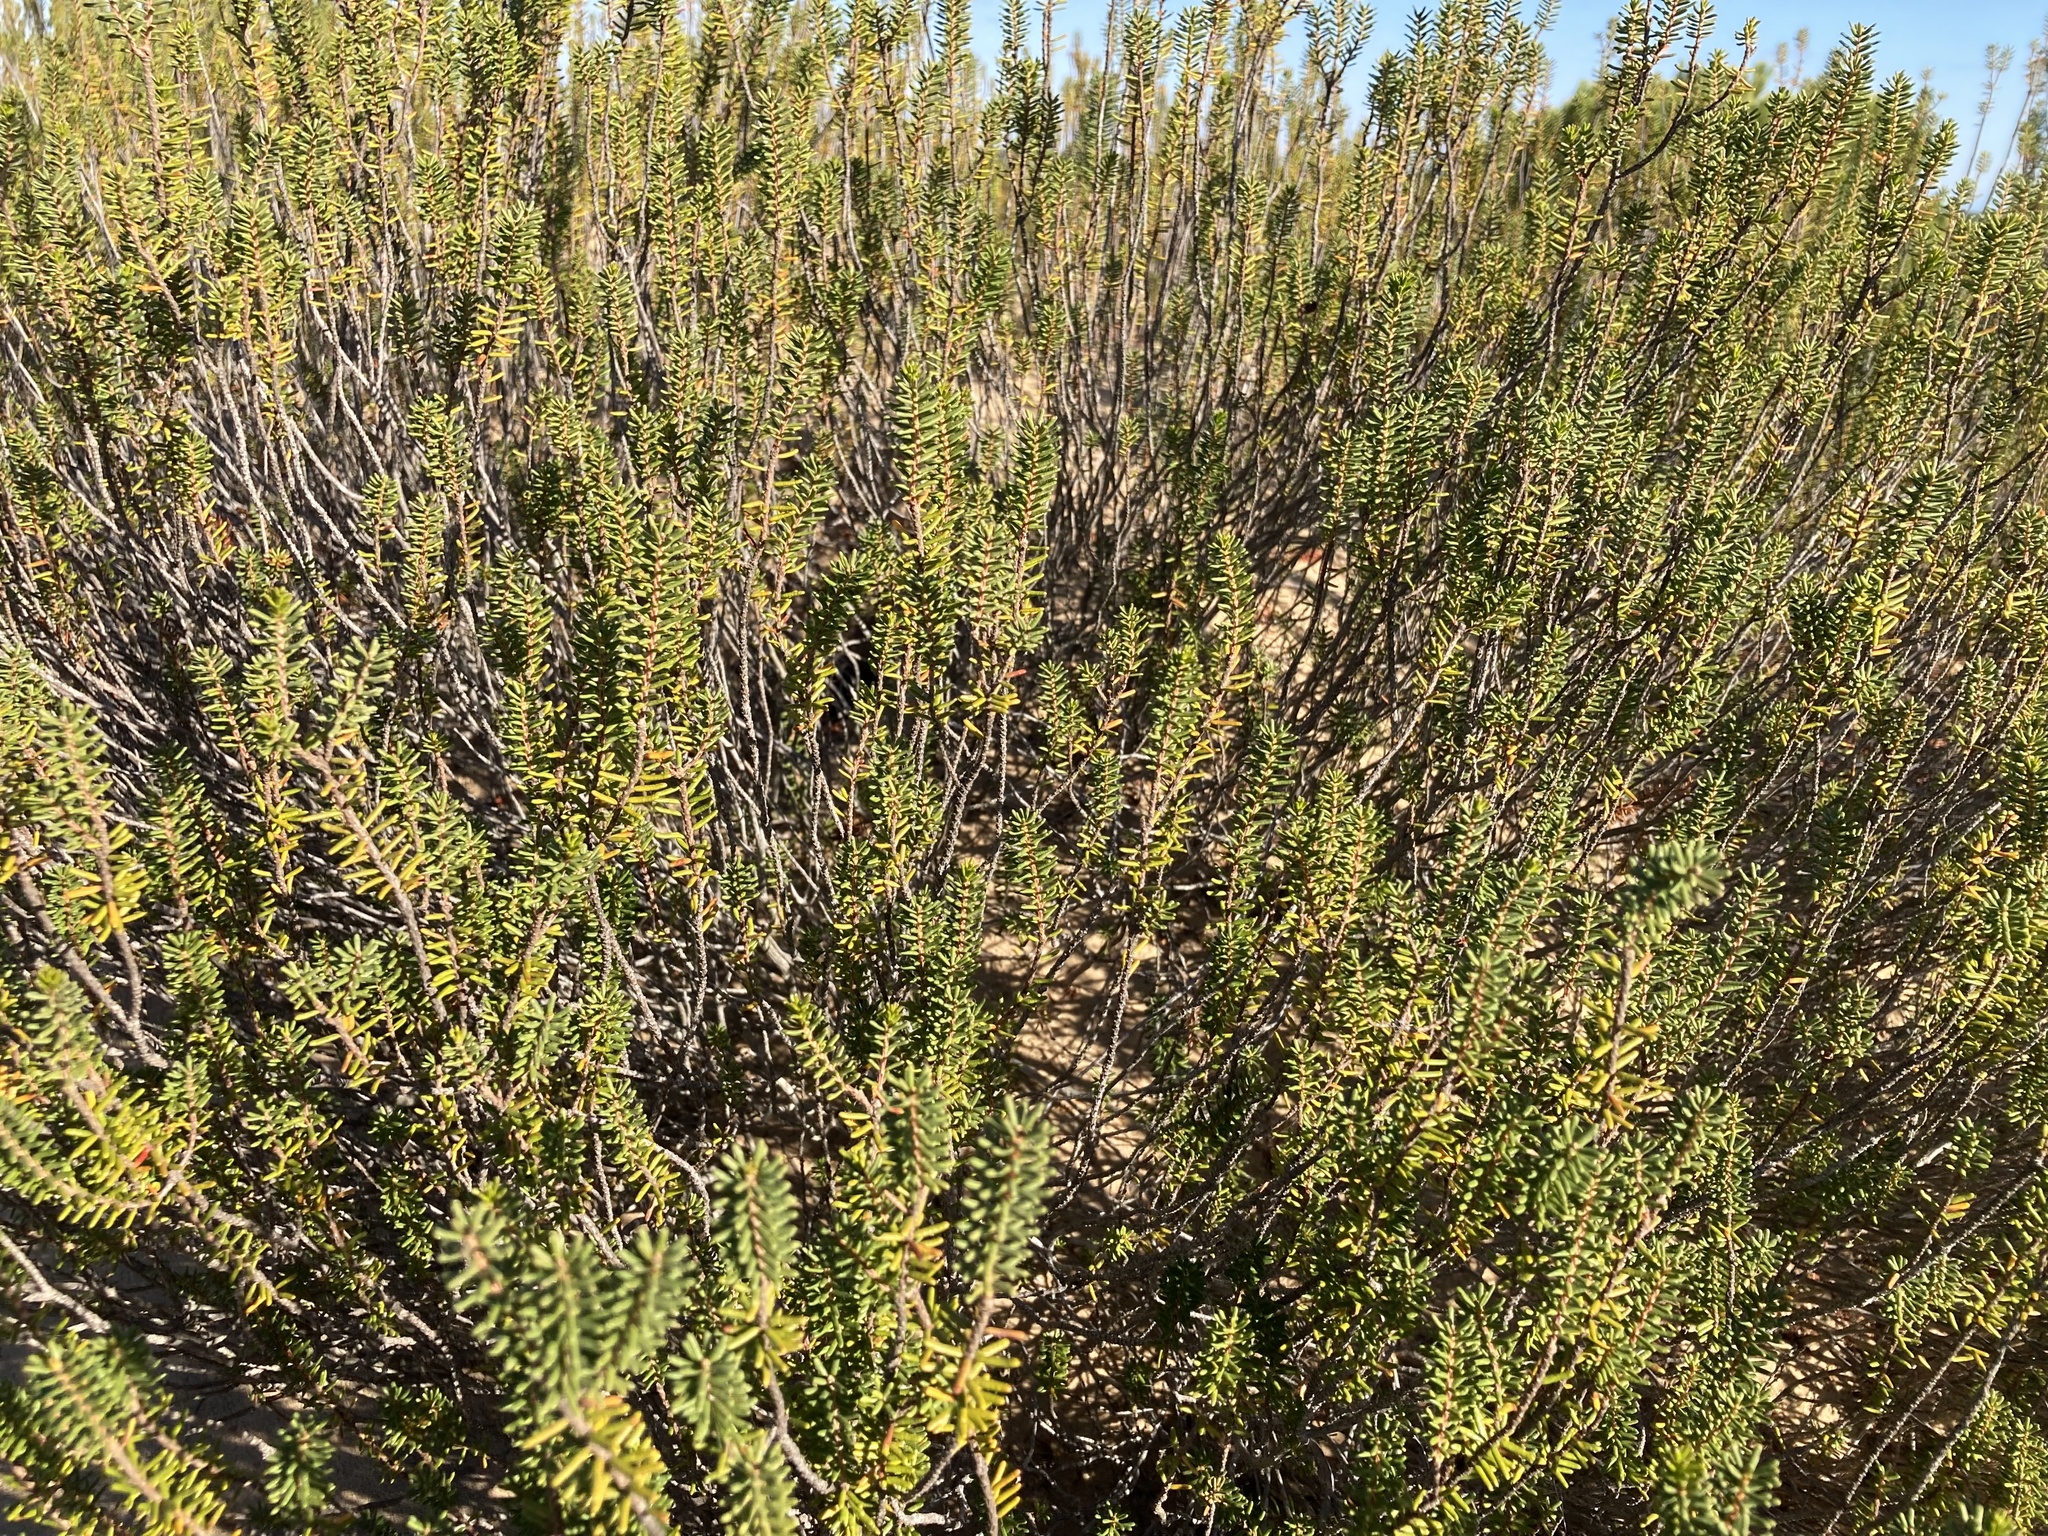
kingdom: Plantae
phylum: Tracheophyta
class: Magnoliopsida
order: Ericales
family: Ericaceae
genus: Corema
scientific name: Corema album
